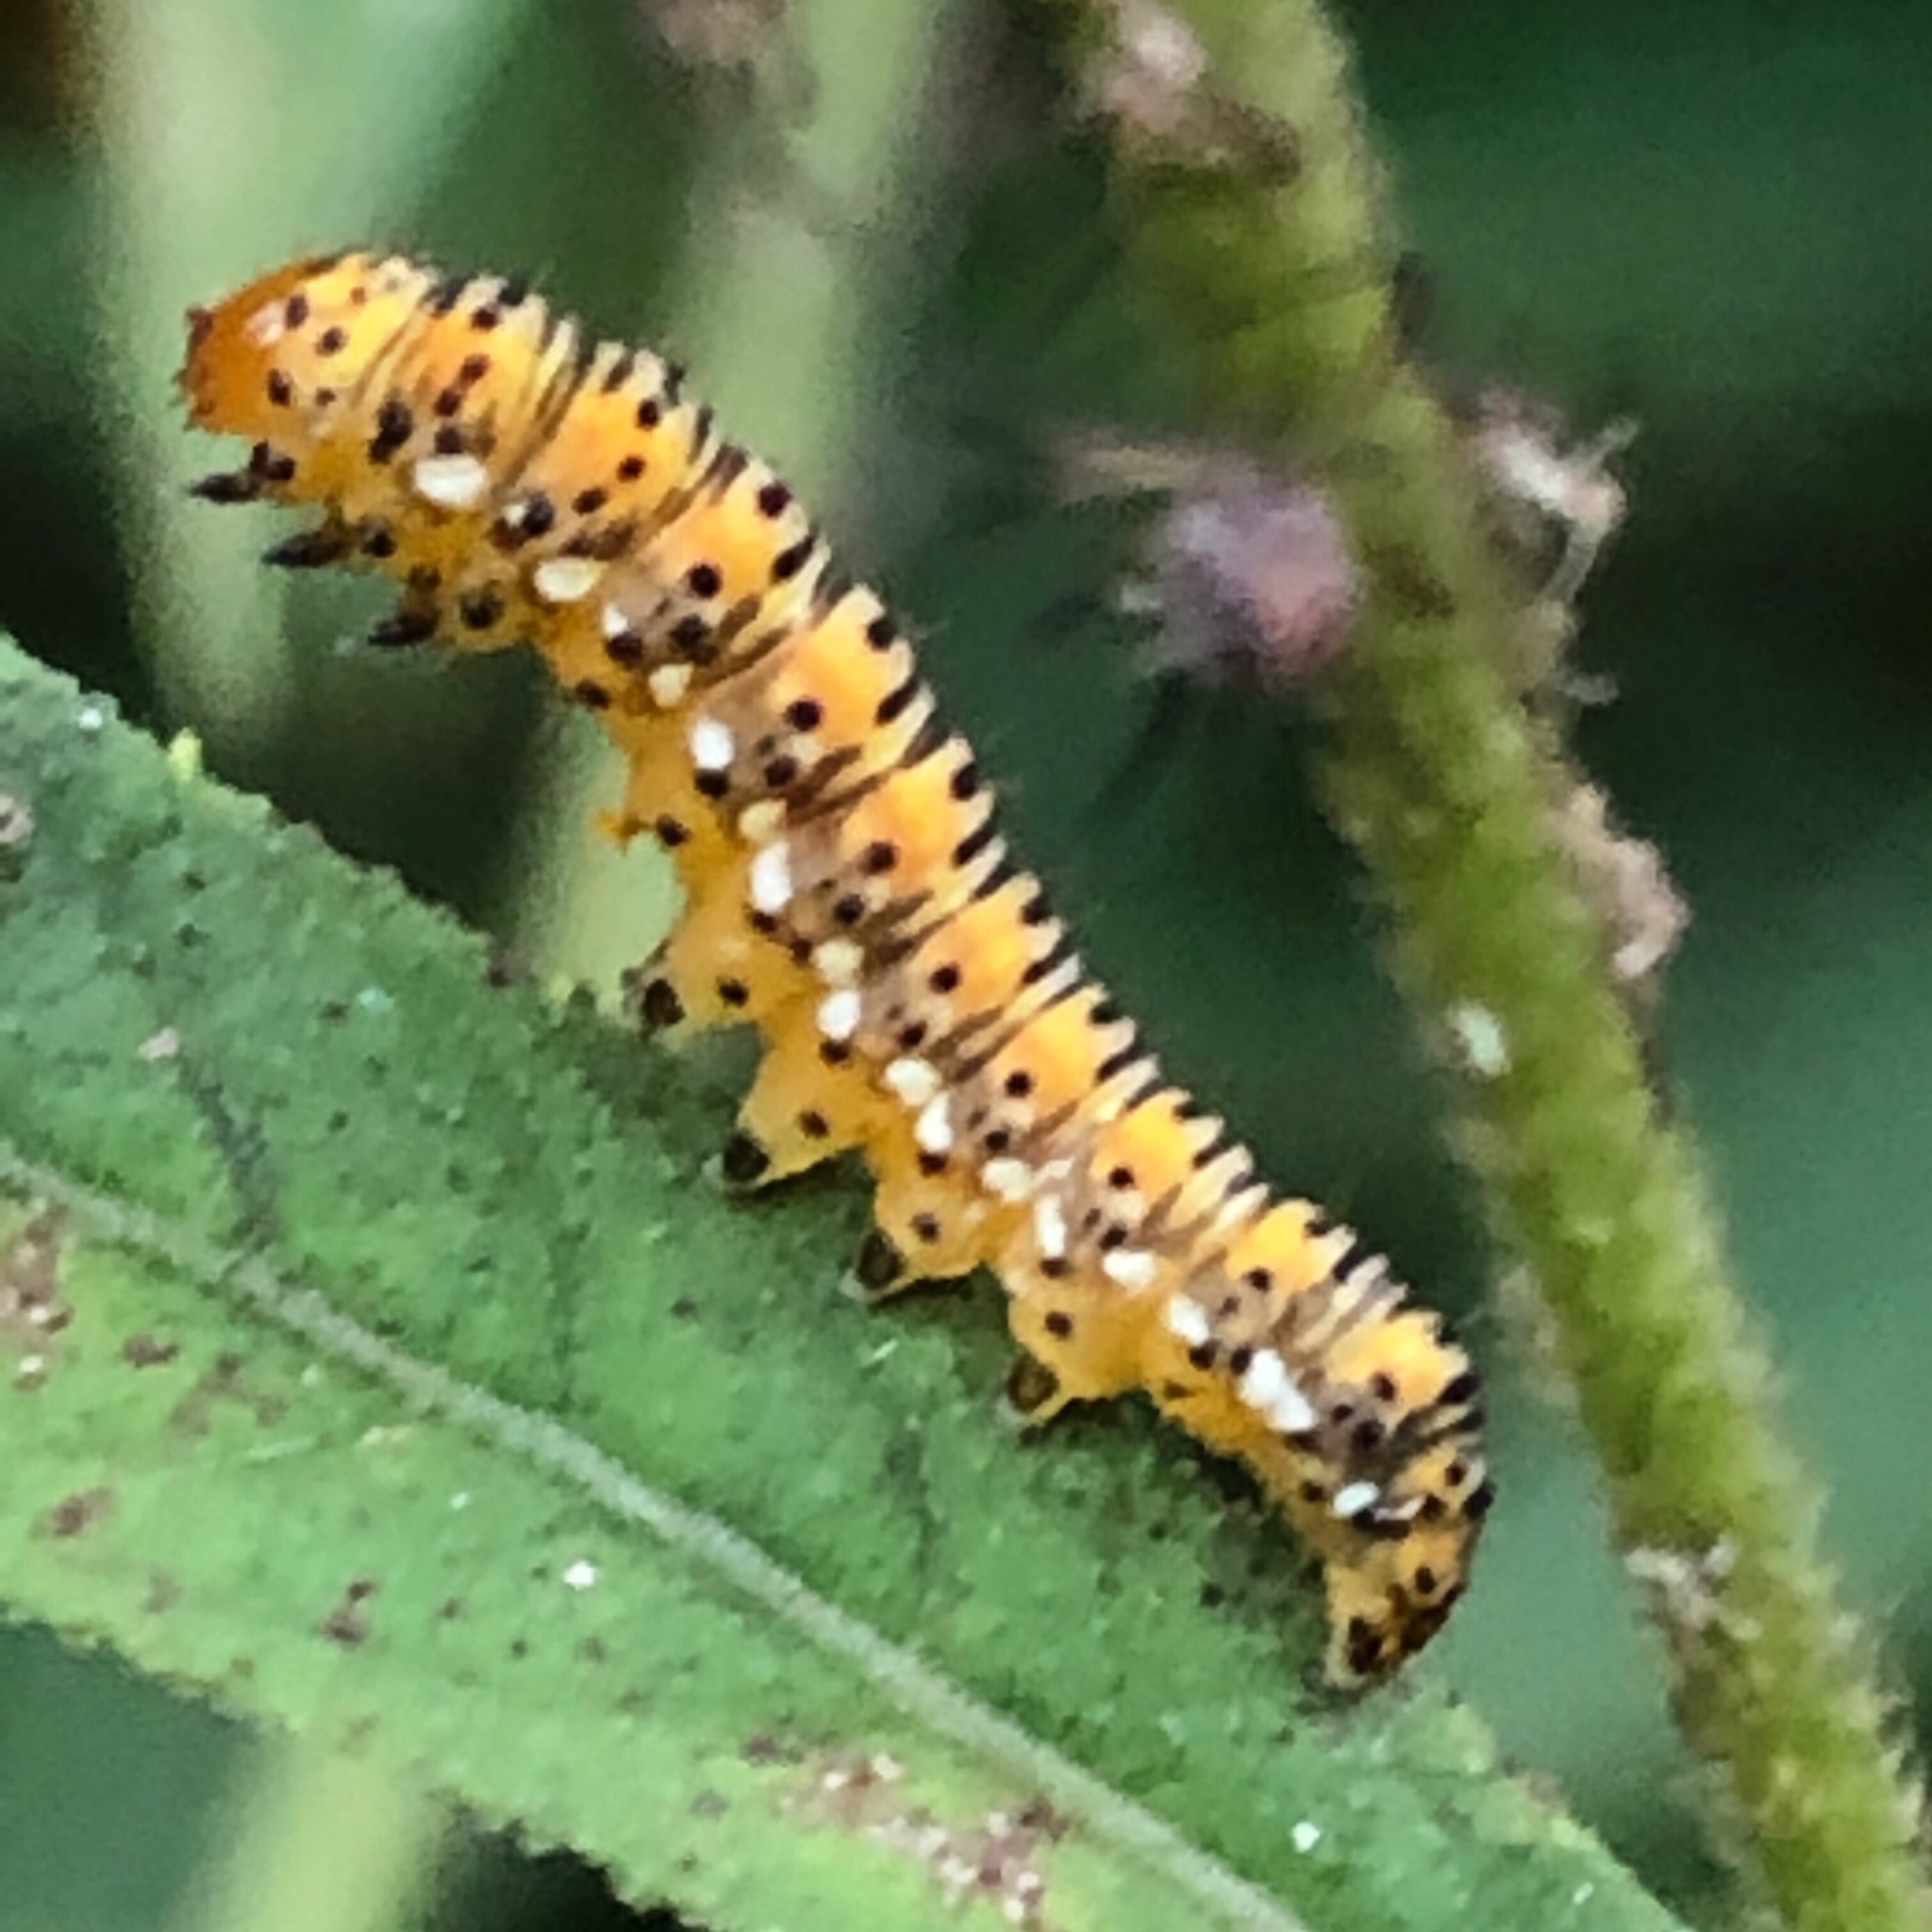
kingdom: Animalia
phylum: Arthropoda
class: Insecta
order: Lepidoptera
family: Noctuidae
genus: Basilodes
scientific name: Basilodes pepita
